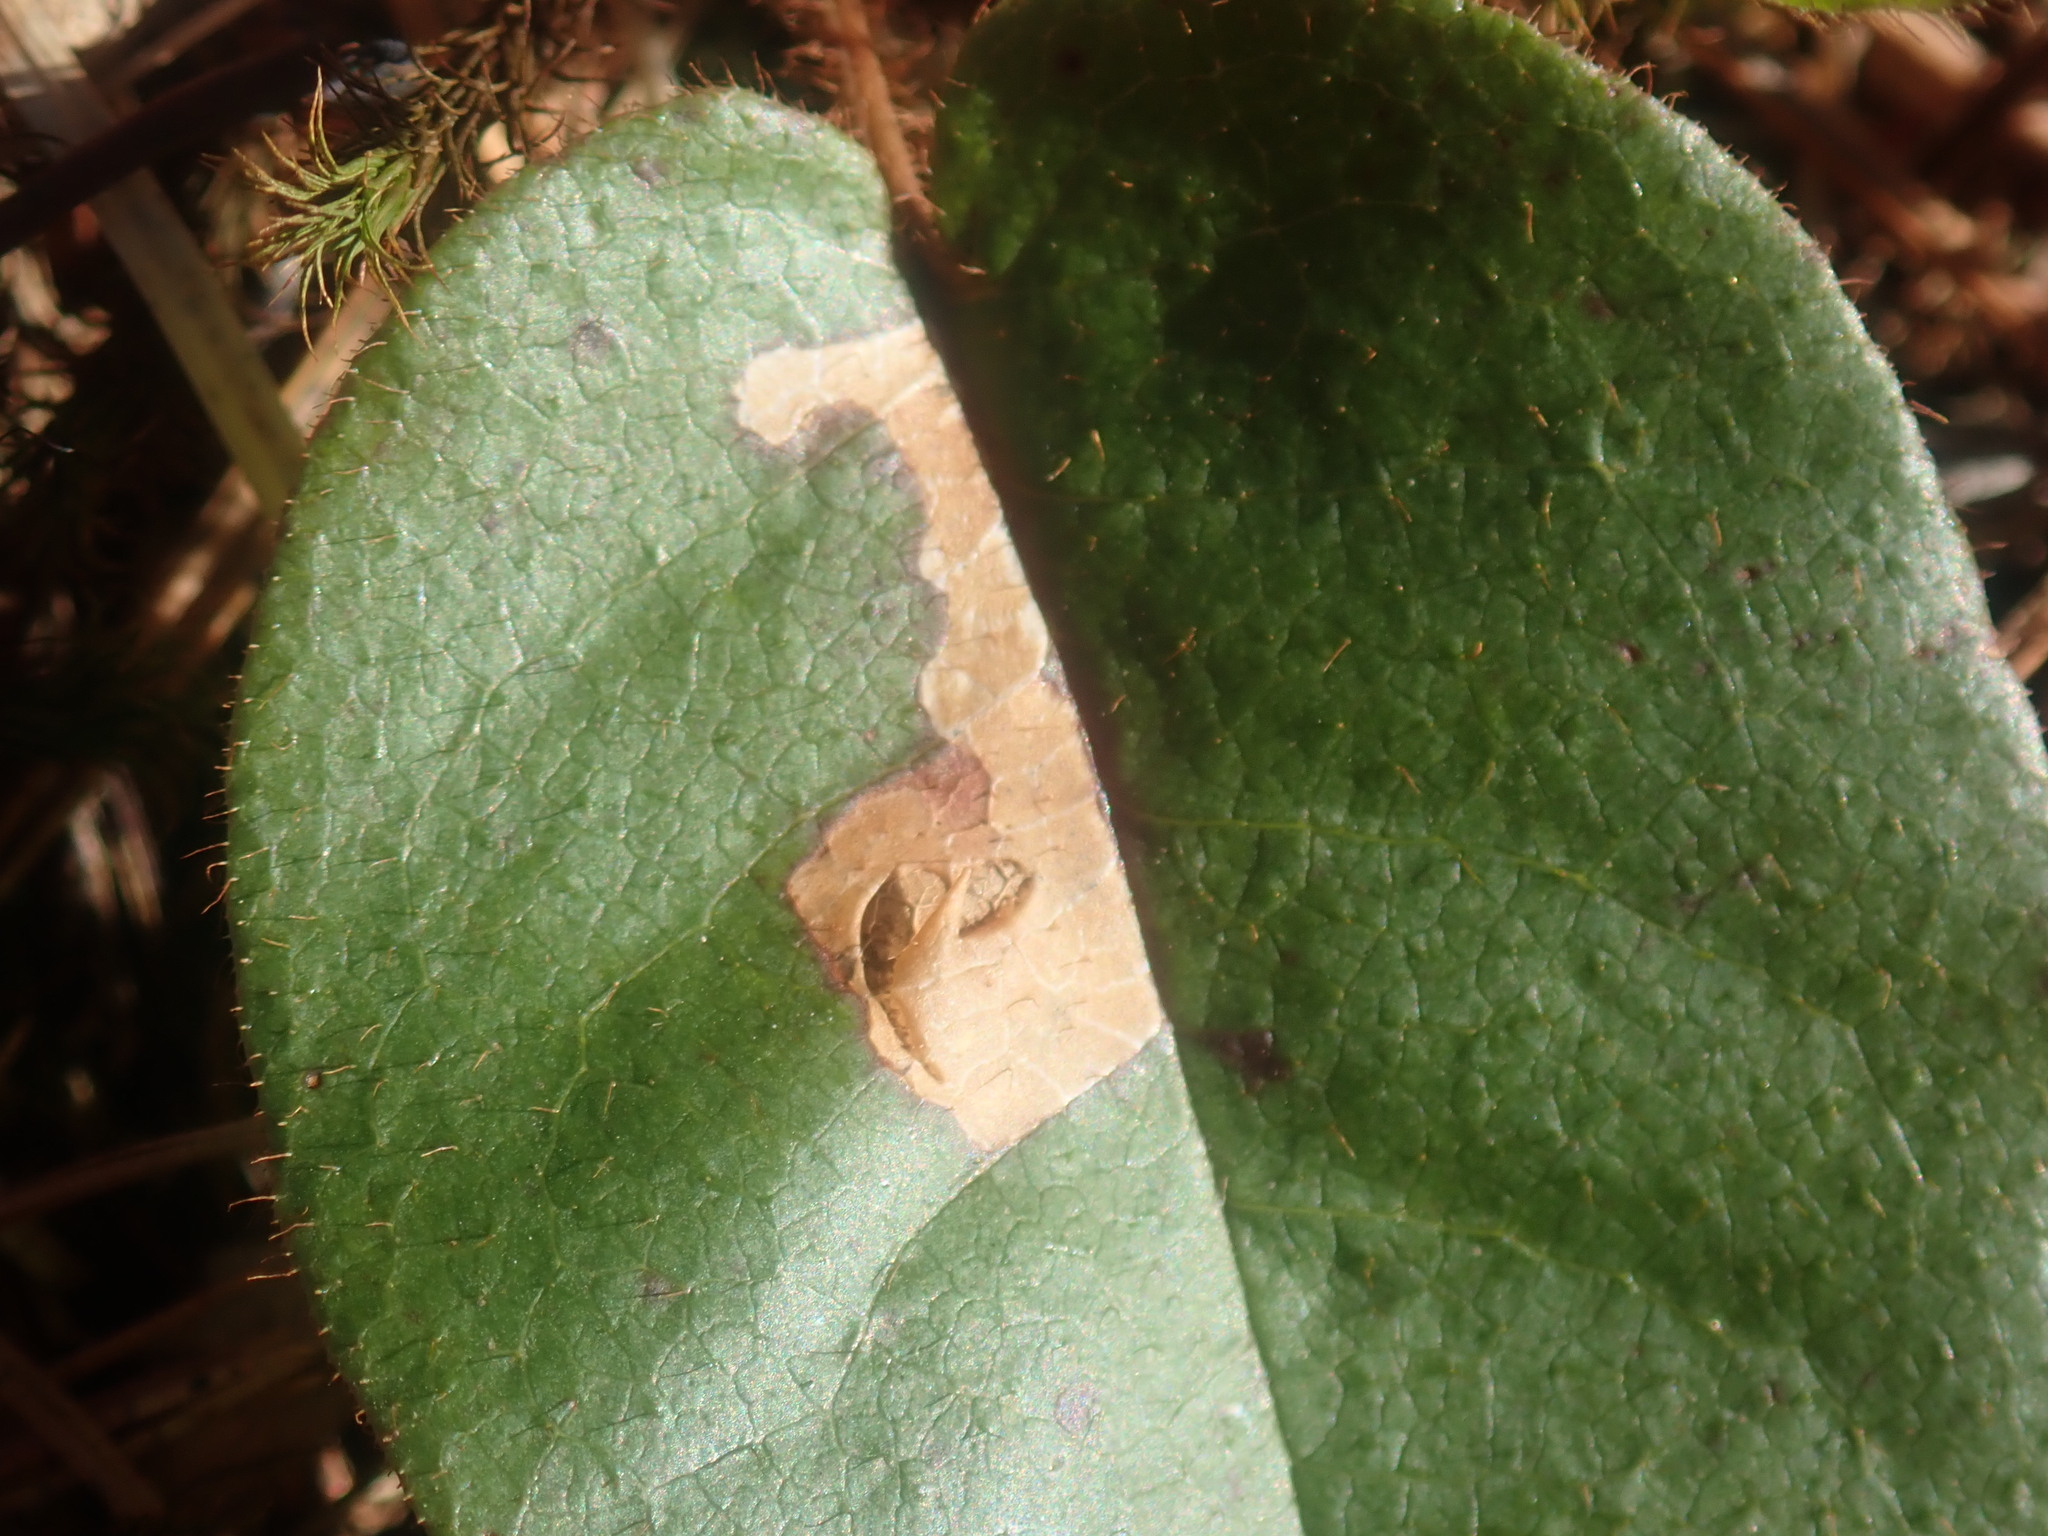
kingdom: Animalia
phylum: Arthropoda
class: Insecta
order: Coleoptera
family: Buprestidae
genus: Brachys
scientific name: Brachys
